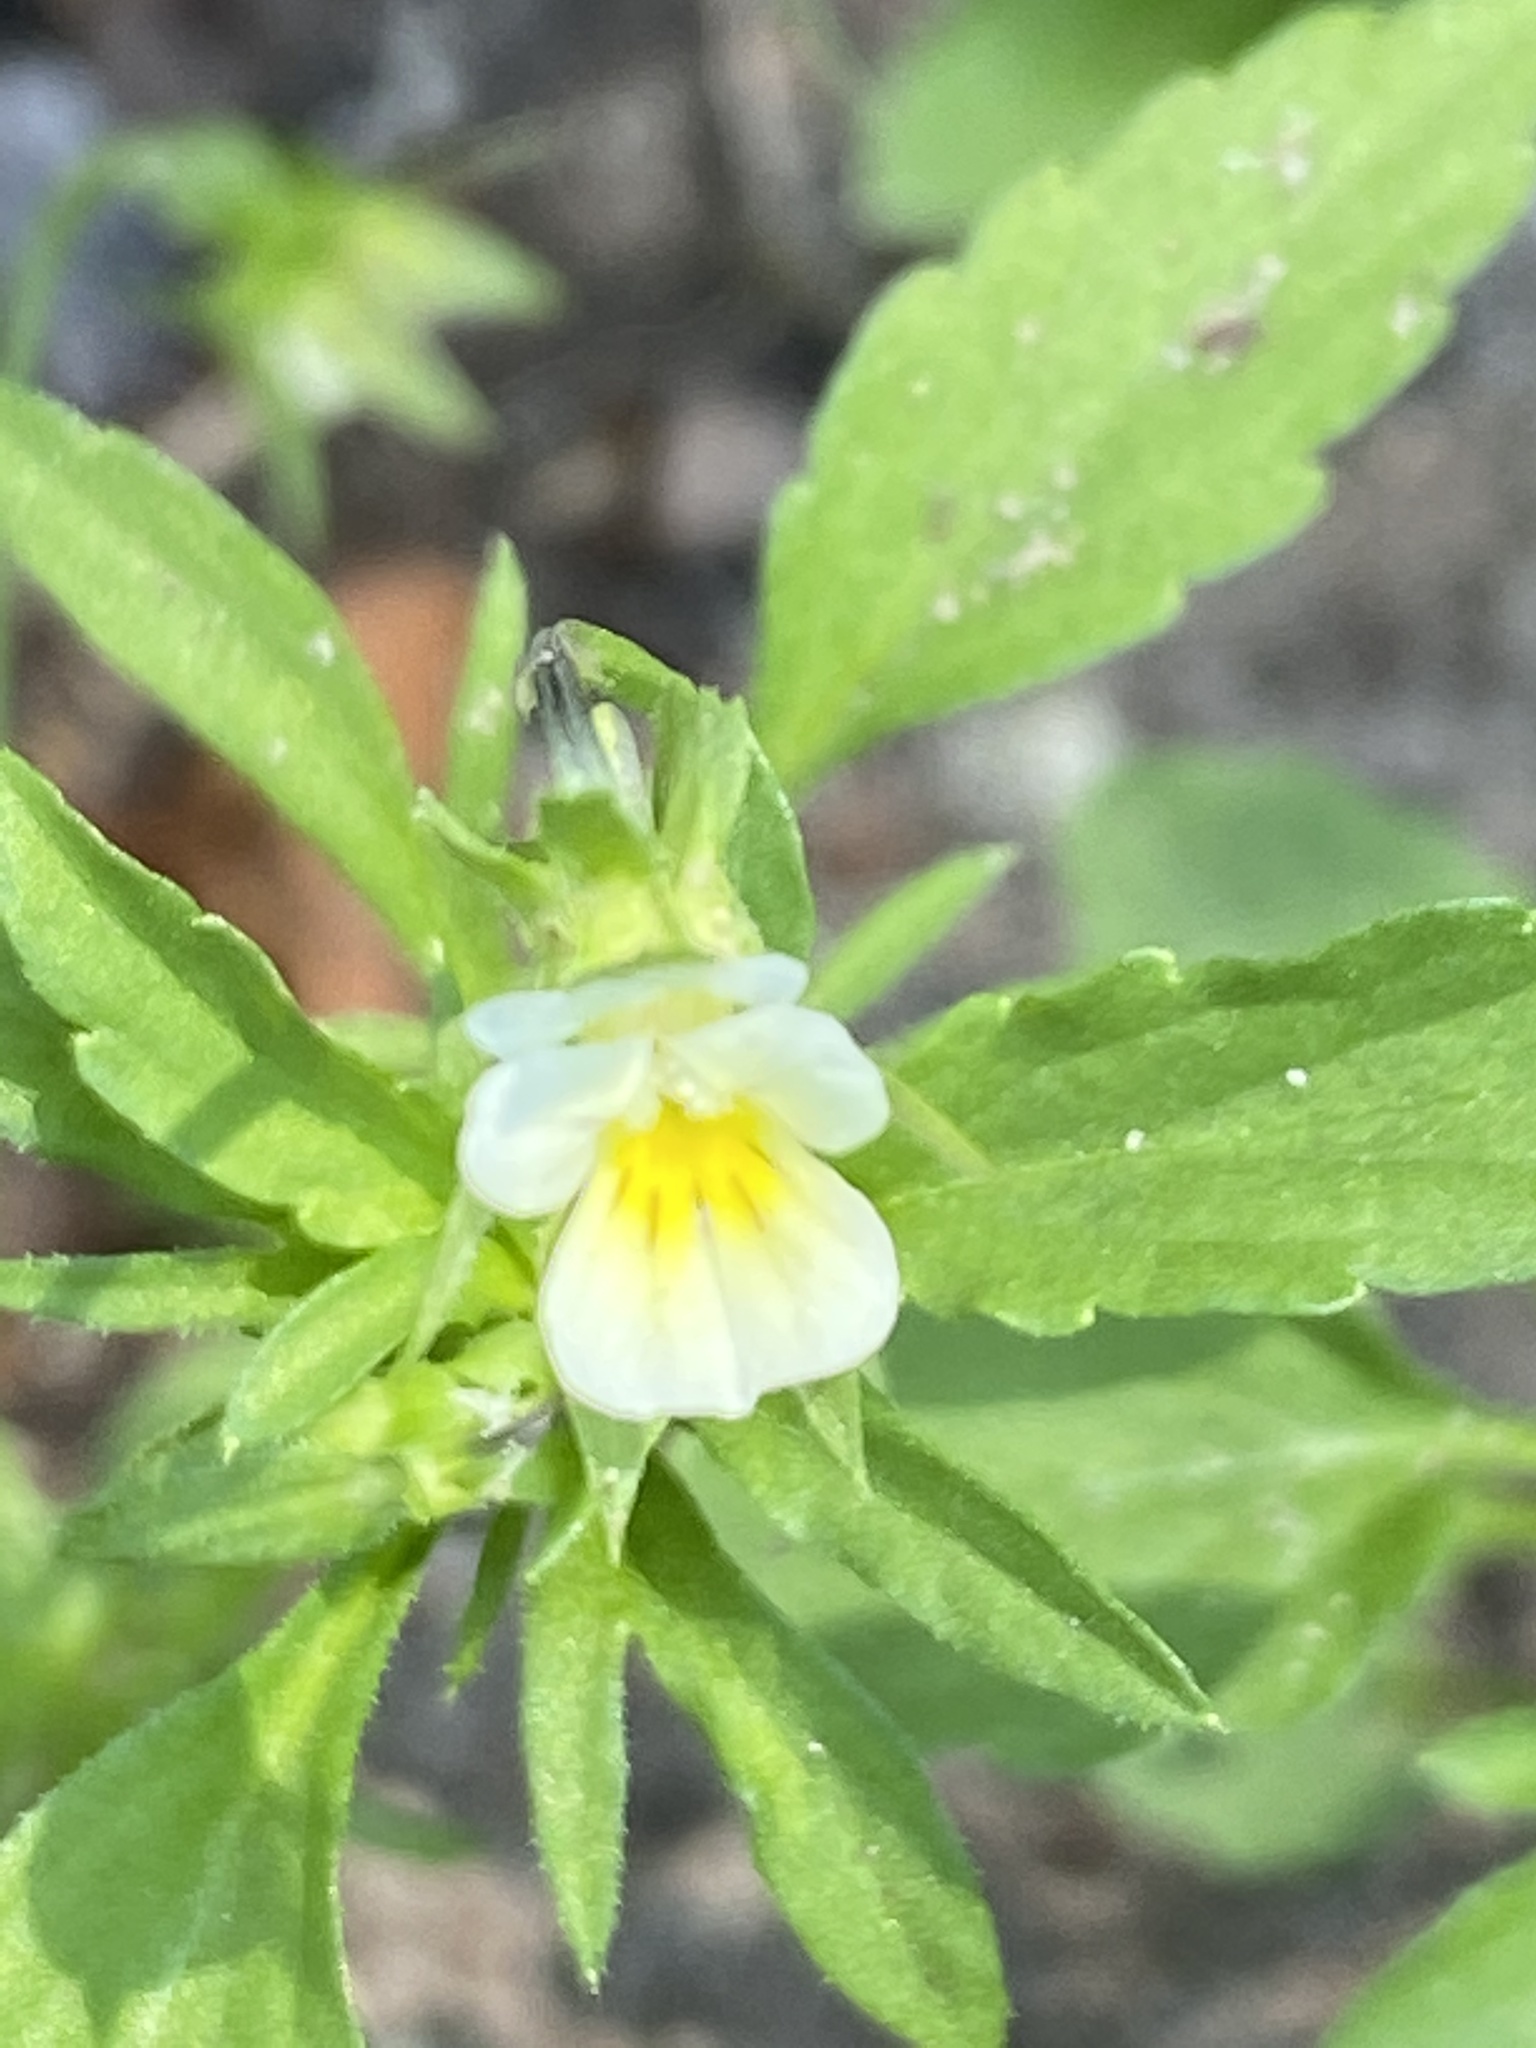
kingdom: Plantae
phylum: Tracheophyta
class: Magnoliopsida
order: Malpighiales
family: Violaceae
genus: Viola
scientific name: Viola arvensis
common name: Field pansy
